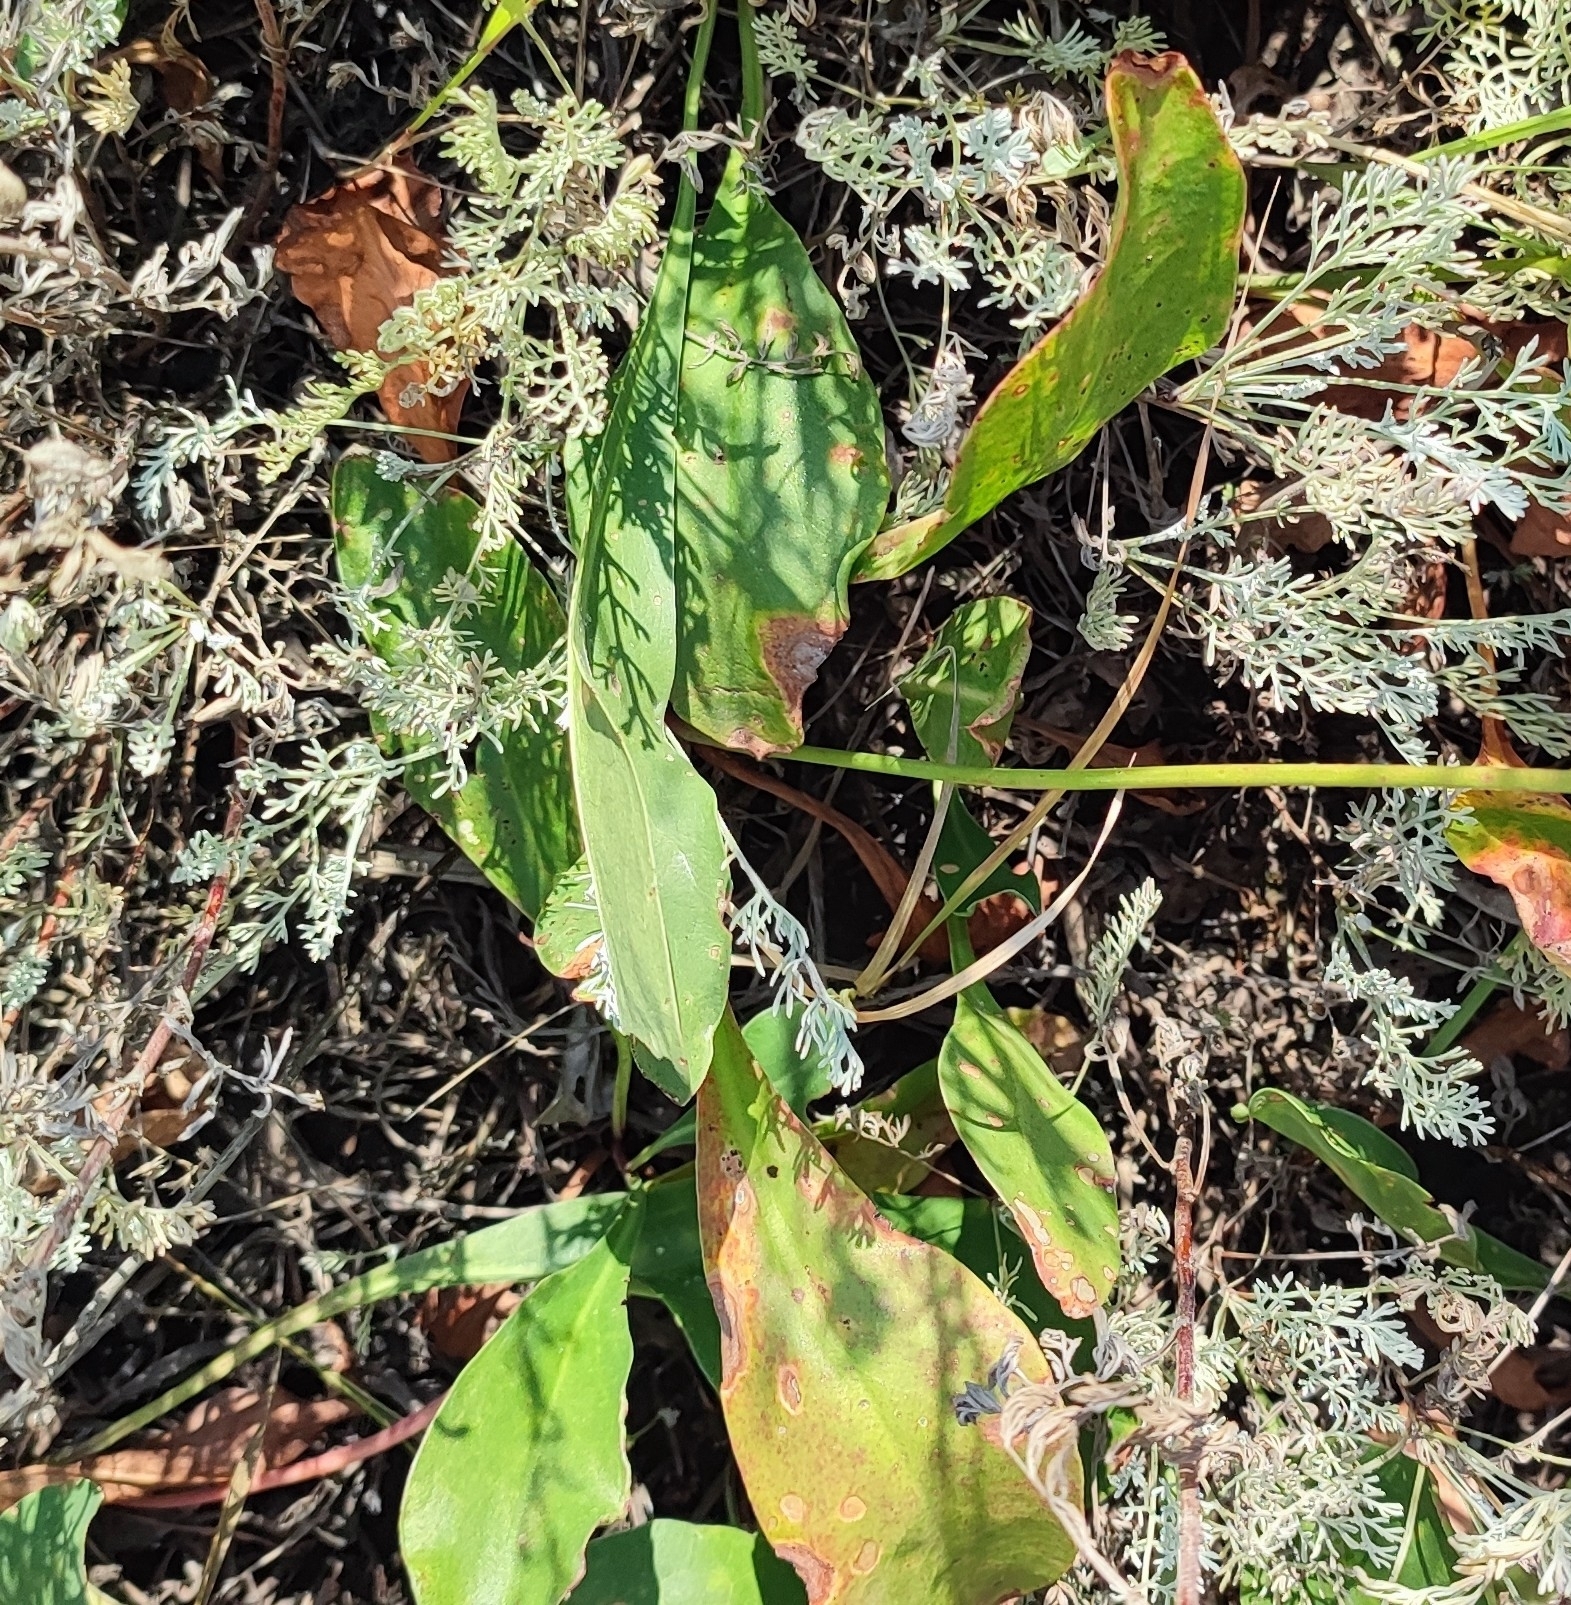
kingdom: Plantae
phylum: Tracheophyta
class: Magnoliopsida
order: Caryophyllales
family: Plumbaginaceae
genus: Limonium
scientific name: Limonium gmelini
